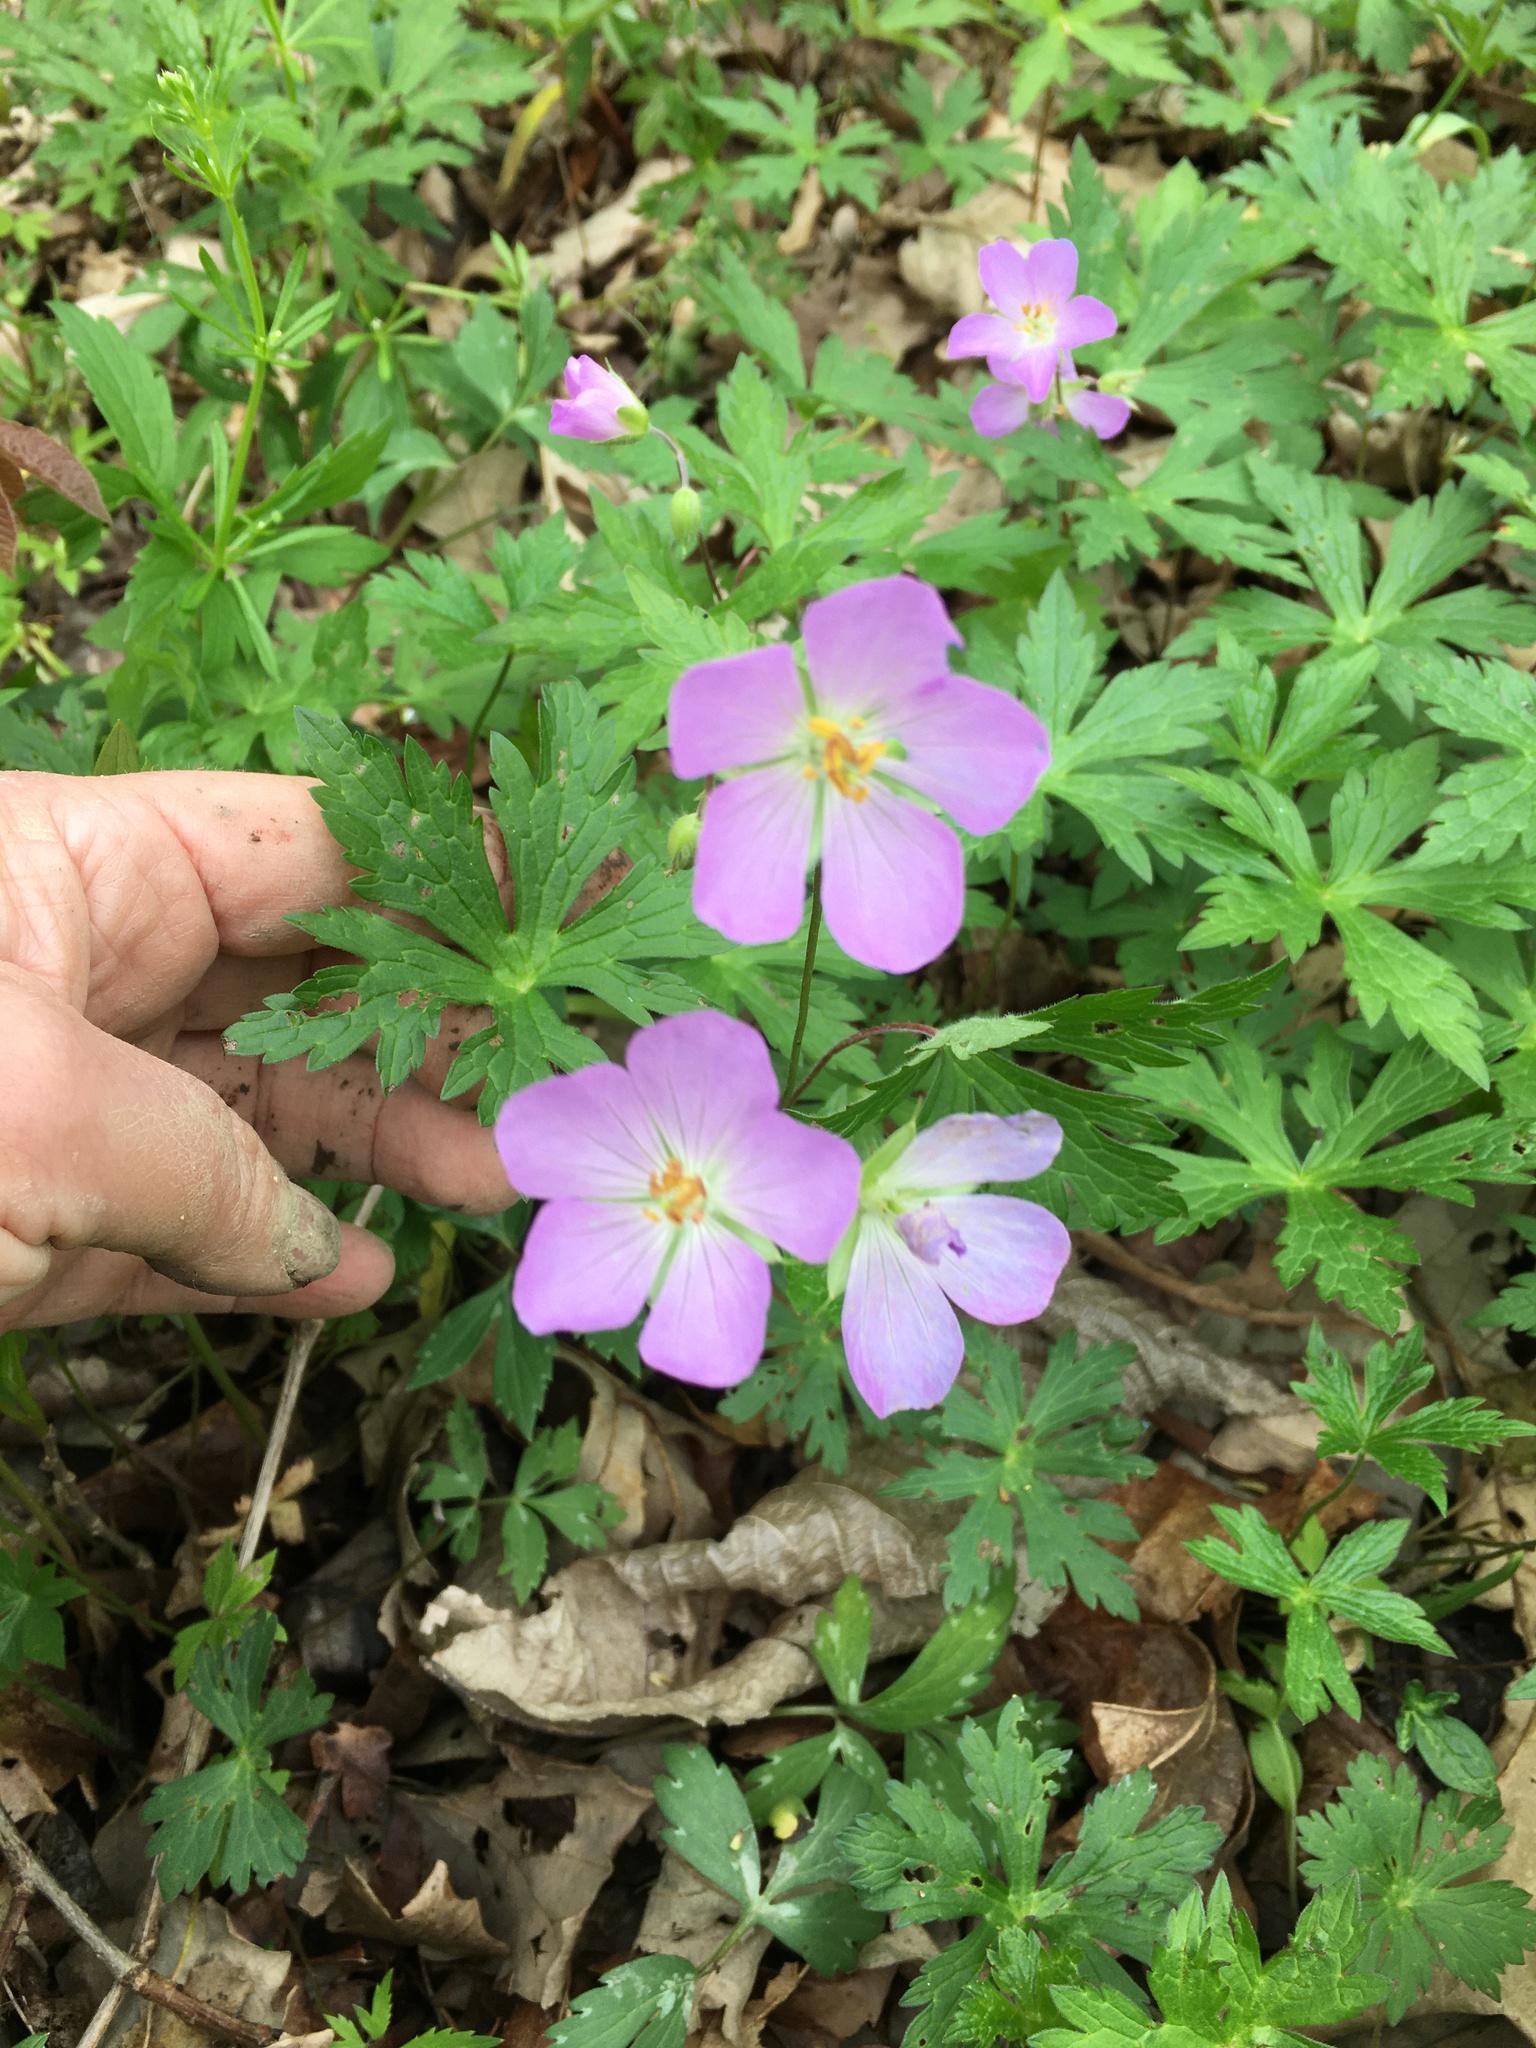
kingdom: Plantae
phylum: Tracheophyta
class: Magnoliopsida
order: Geraniales
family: Geraniaceae
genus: Geranium
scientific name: Geranium maculatum
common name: Spotted geranium
